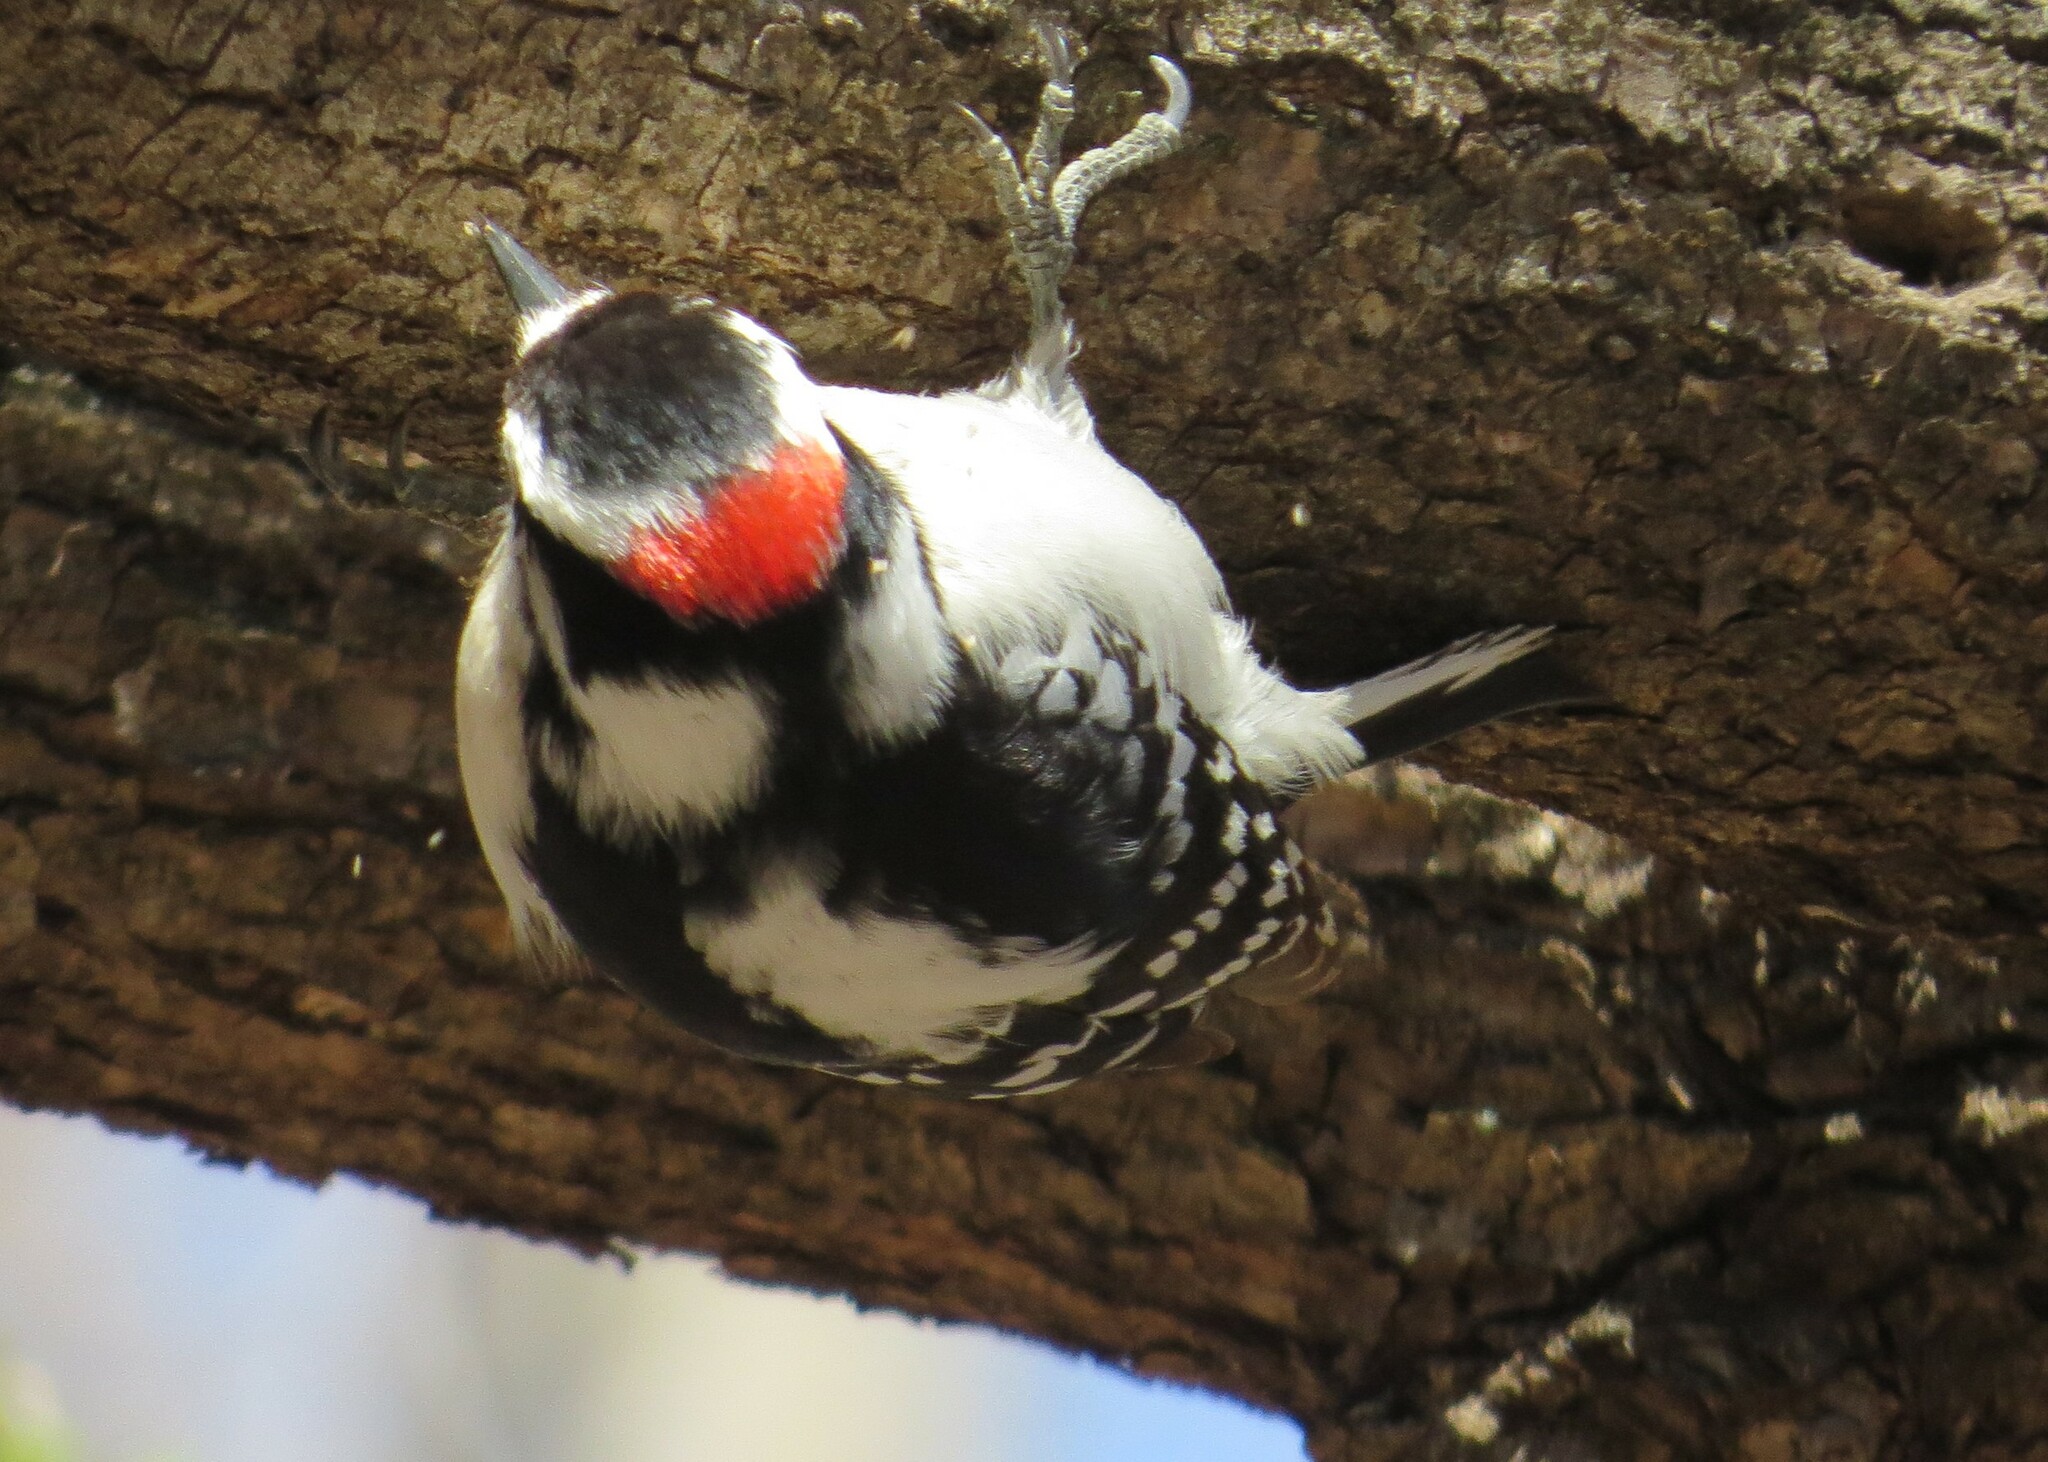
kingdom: Animalia
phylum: Chordata
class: Aves
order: Piciformes
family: Picidae
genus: Dryobates
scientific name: Dryobates pubescens
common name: Downy woodpecker
